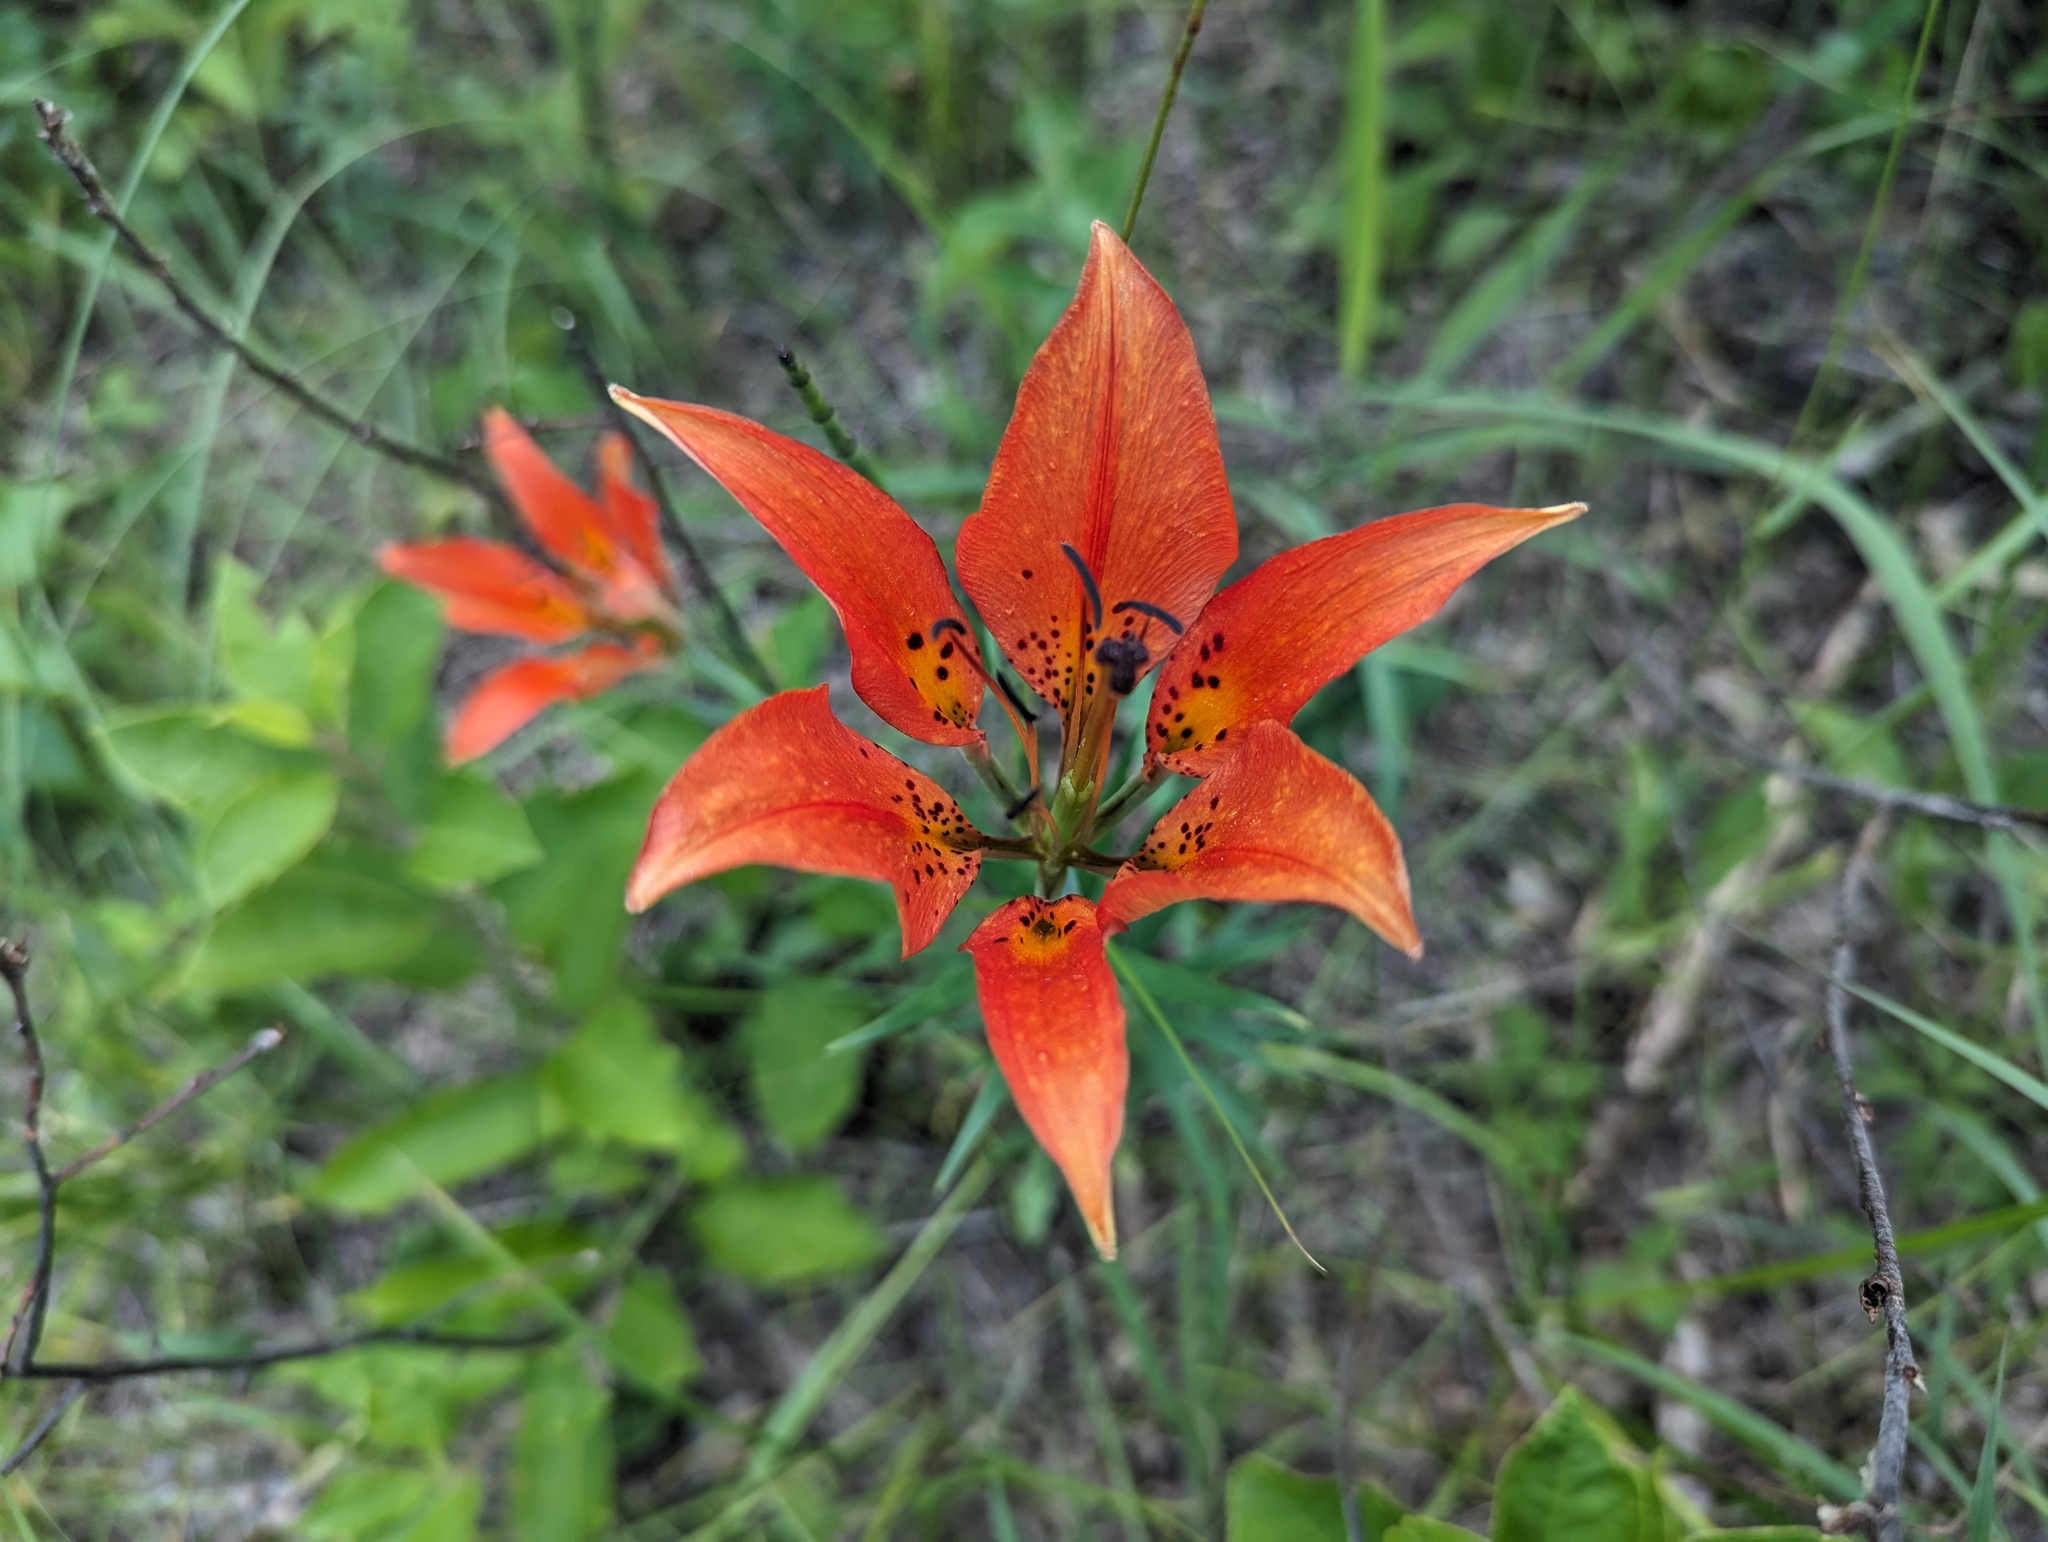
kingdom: Plantae
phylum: Tracheophyta
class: Liliopsida
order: Liliales
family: Liliaceae
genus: Lilium
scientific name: Lilium philadelphicum
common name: Red lily
